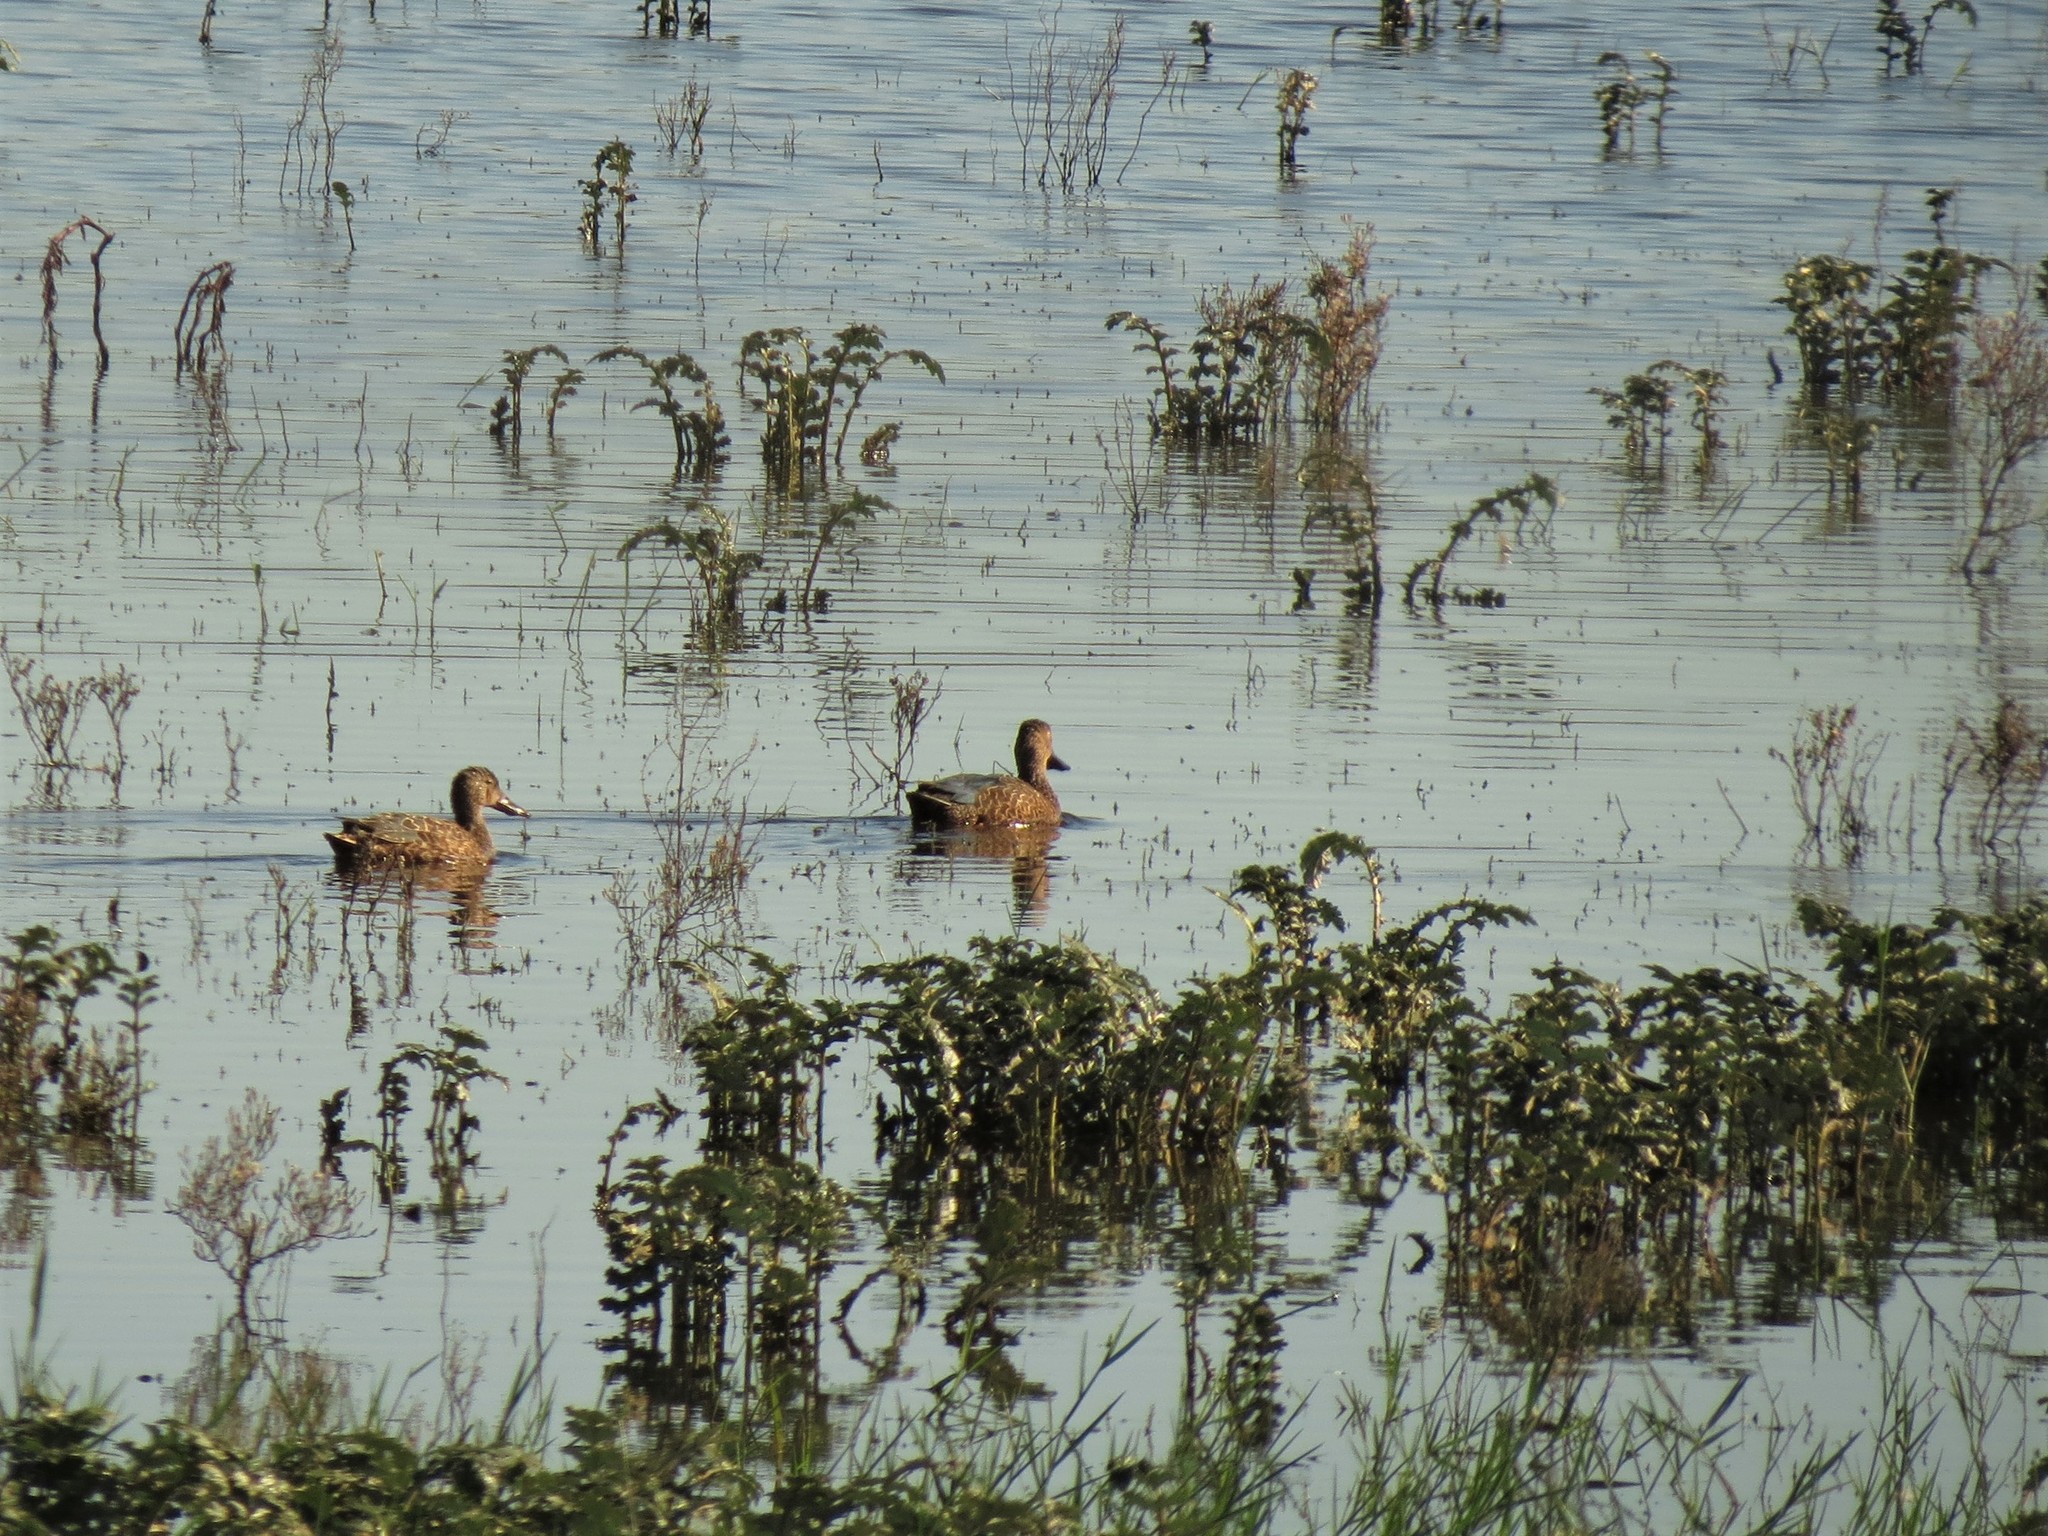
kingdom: Animalia
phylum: Chordata
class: Aves
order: Anseriformes
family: Anatidae
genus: Spatula
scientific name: Spatula smithii
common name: Cape shoveler
